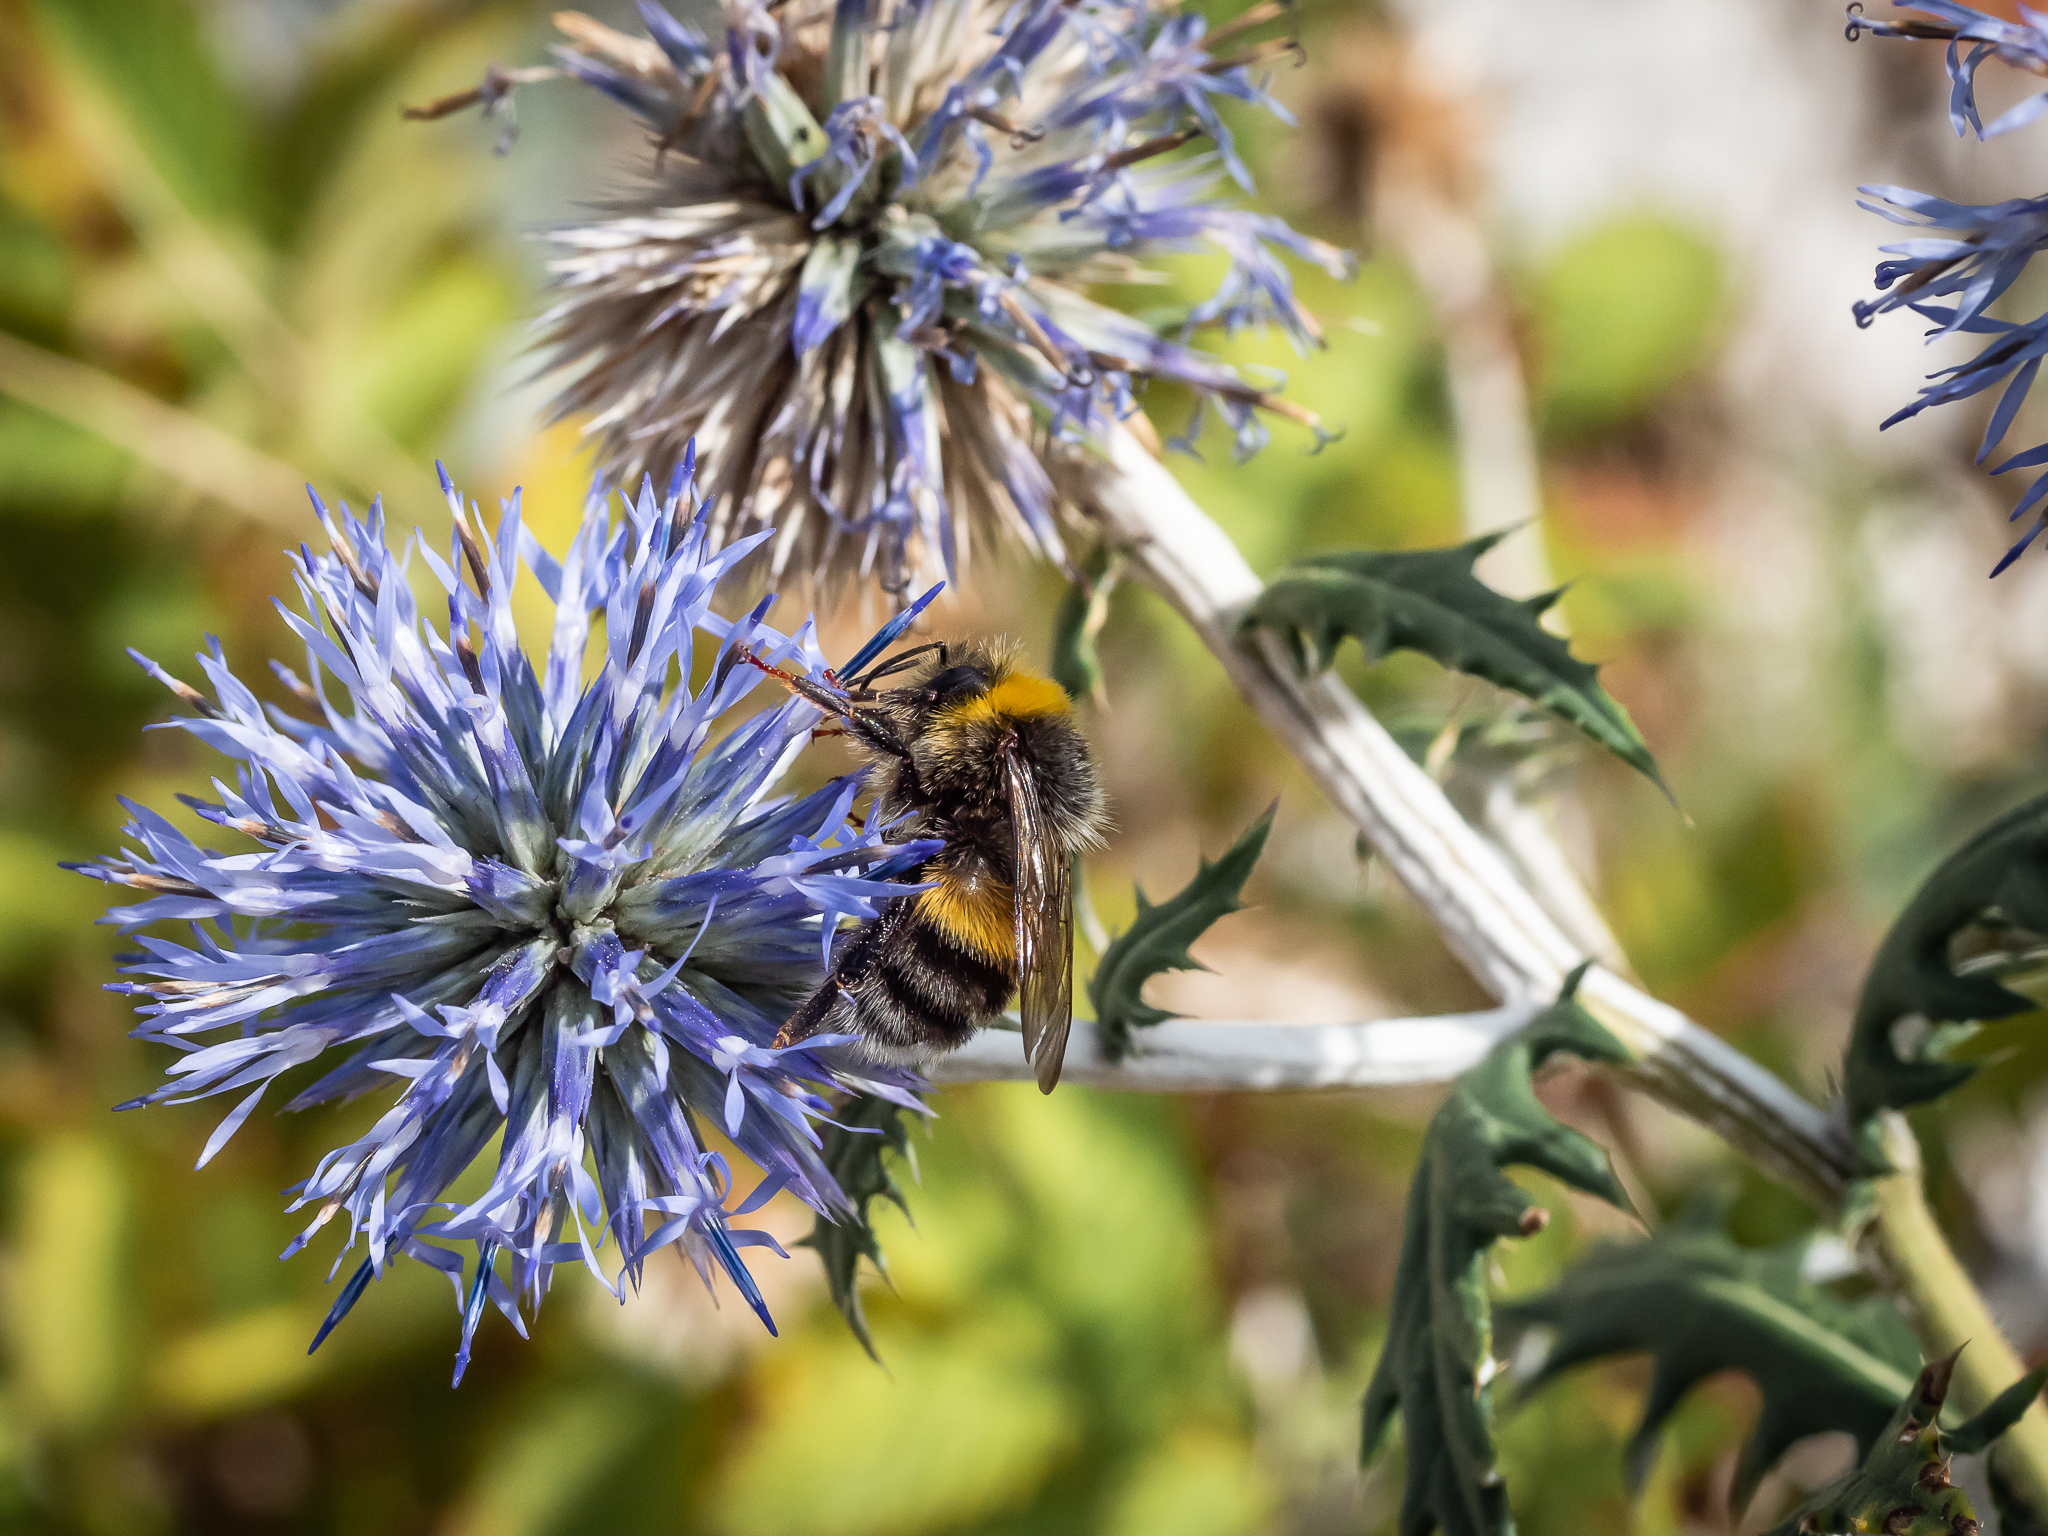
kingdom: Animalia
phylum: Arthropoda
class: Insecta
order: Hymenoptera
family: Apidae
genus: Bombus
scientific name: Bombus lucorum
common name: White-tailed bumblebee
